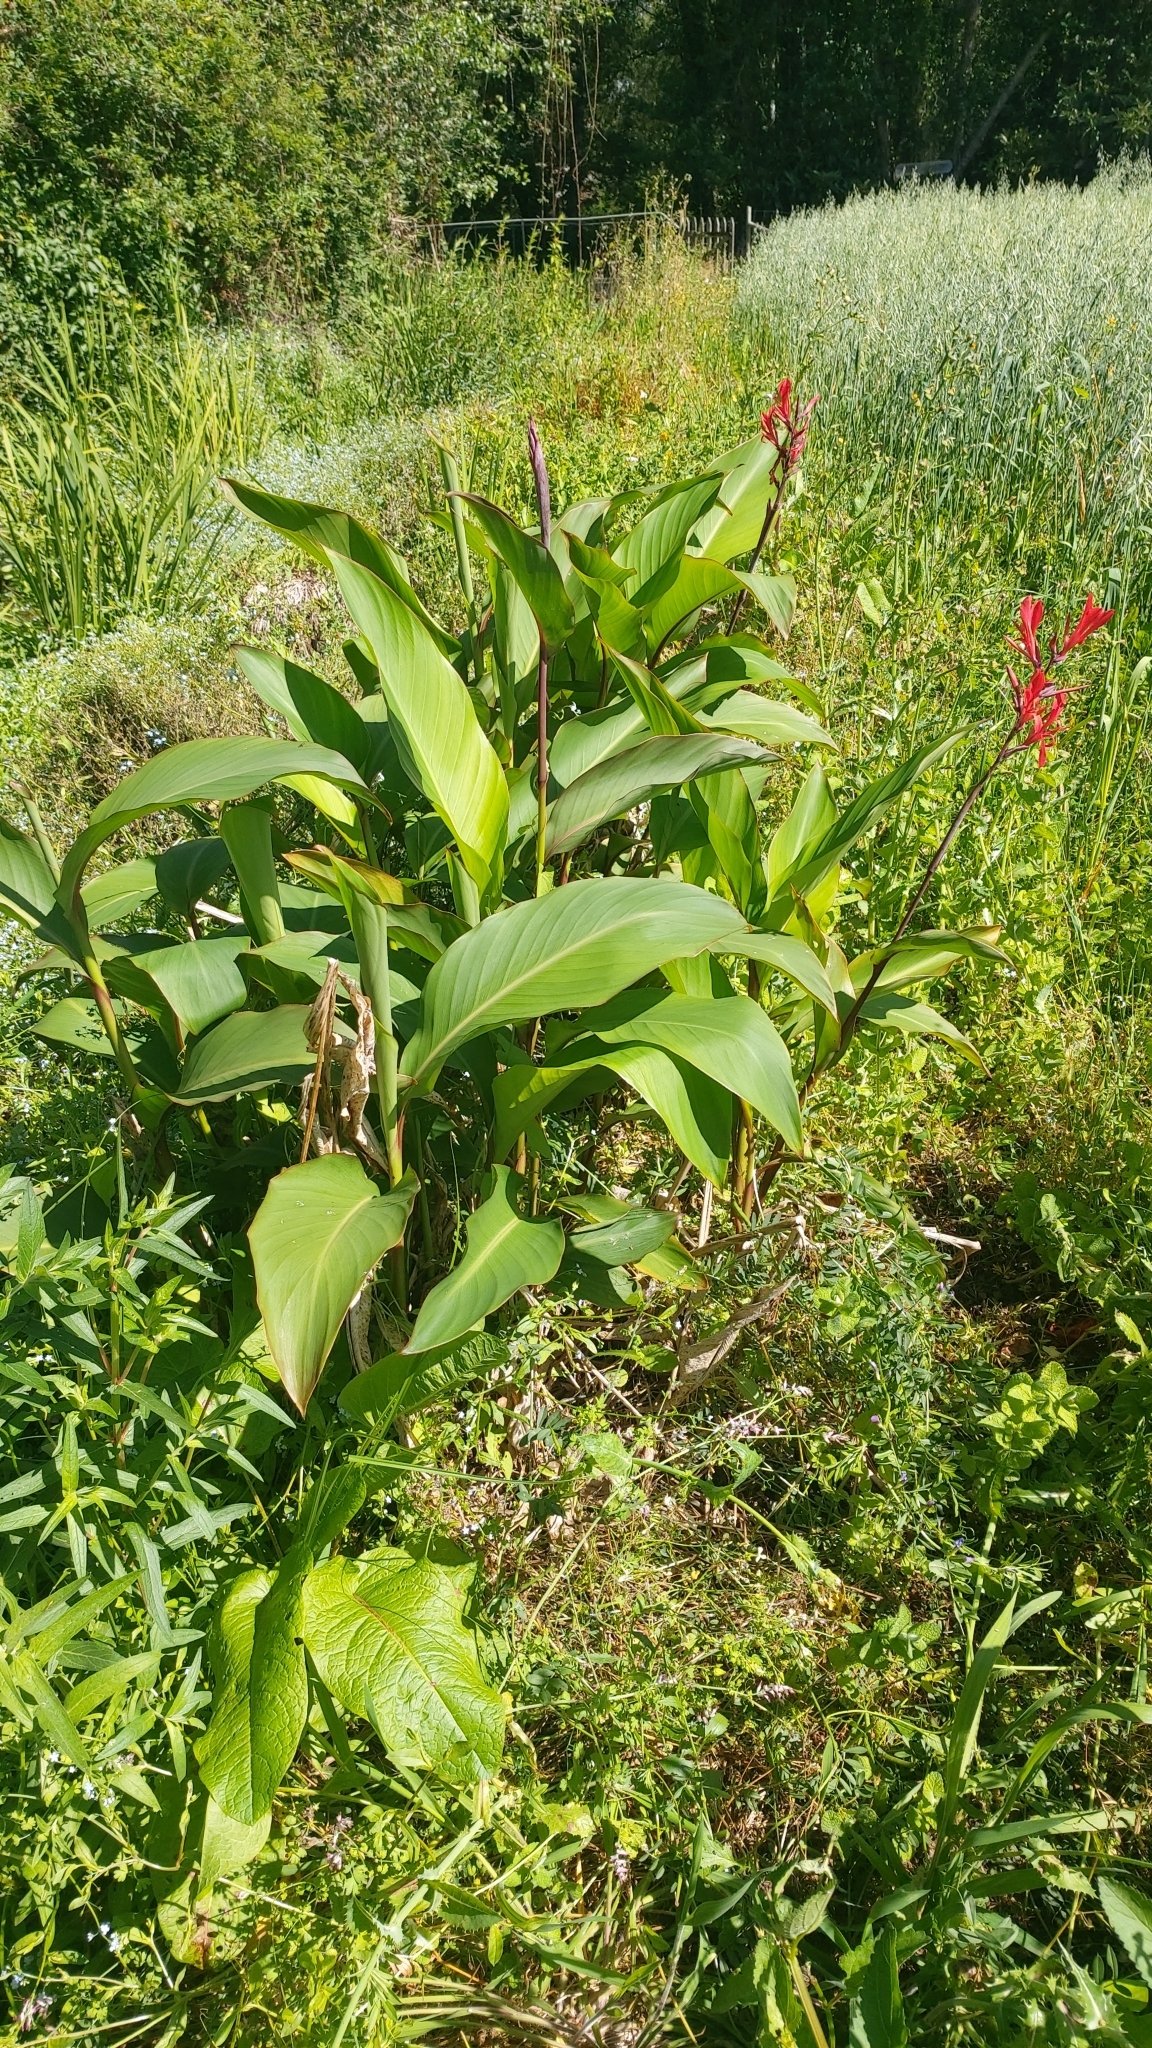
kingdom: Plantae
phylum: Tracheophyta
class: Liliopsida
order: Zingiberales
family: Cannaceae
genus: Canna
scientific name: Canna indica
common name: Indian shot
